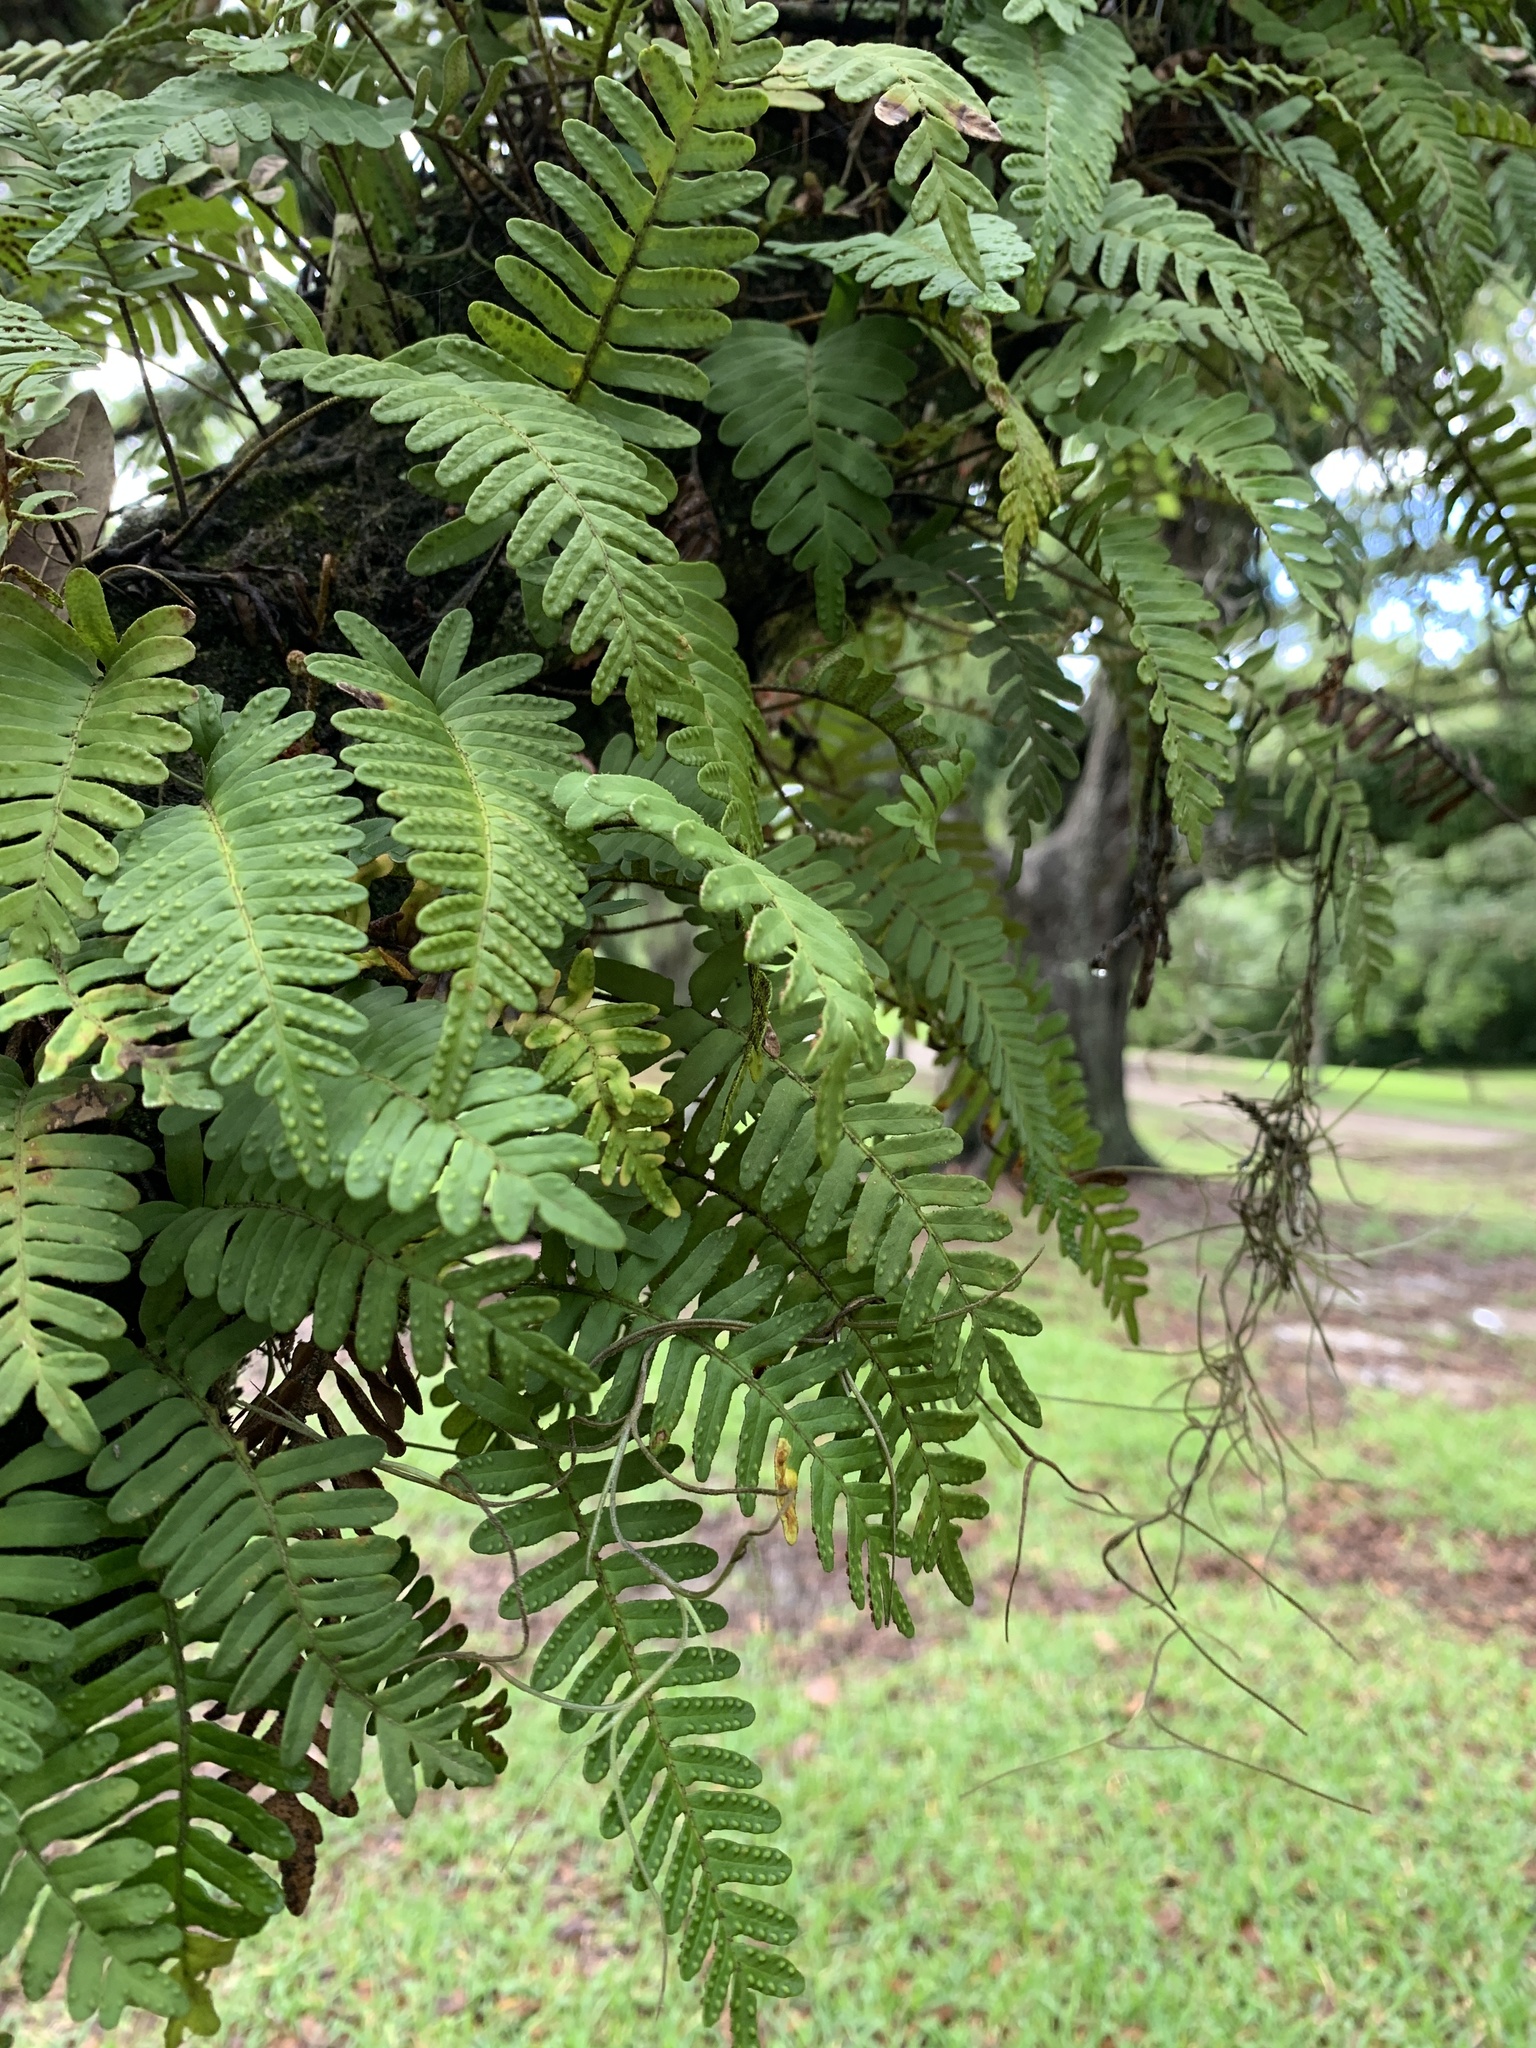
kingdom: Plantae
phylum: Tracheophyta
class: Polypodiopsida
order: Polypodiales
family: Polypodiaceae
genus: Pleopeltis
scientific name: Pleopeltis michauxiana
